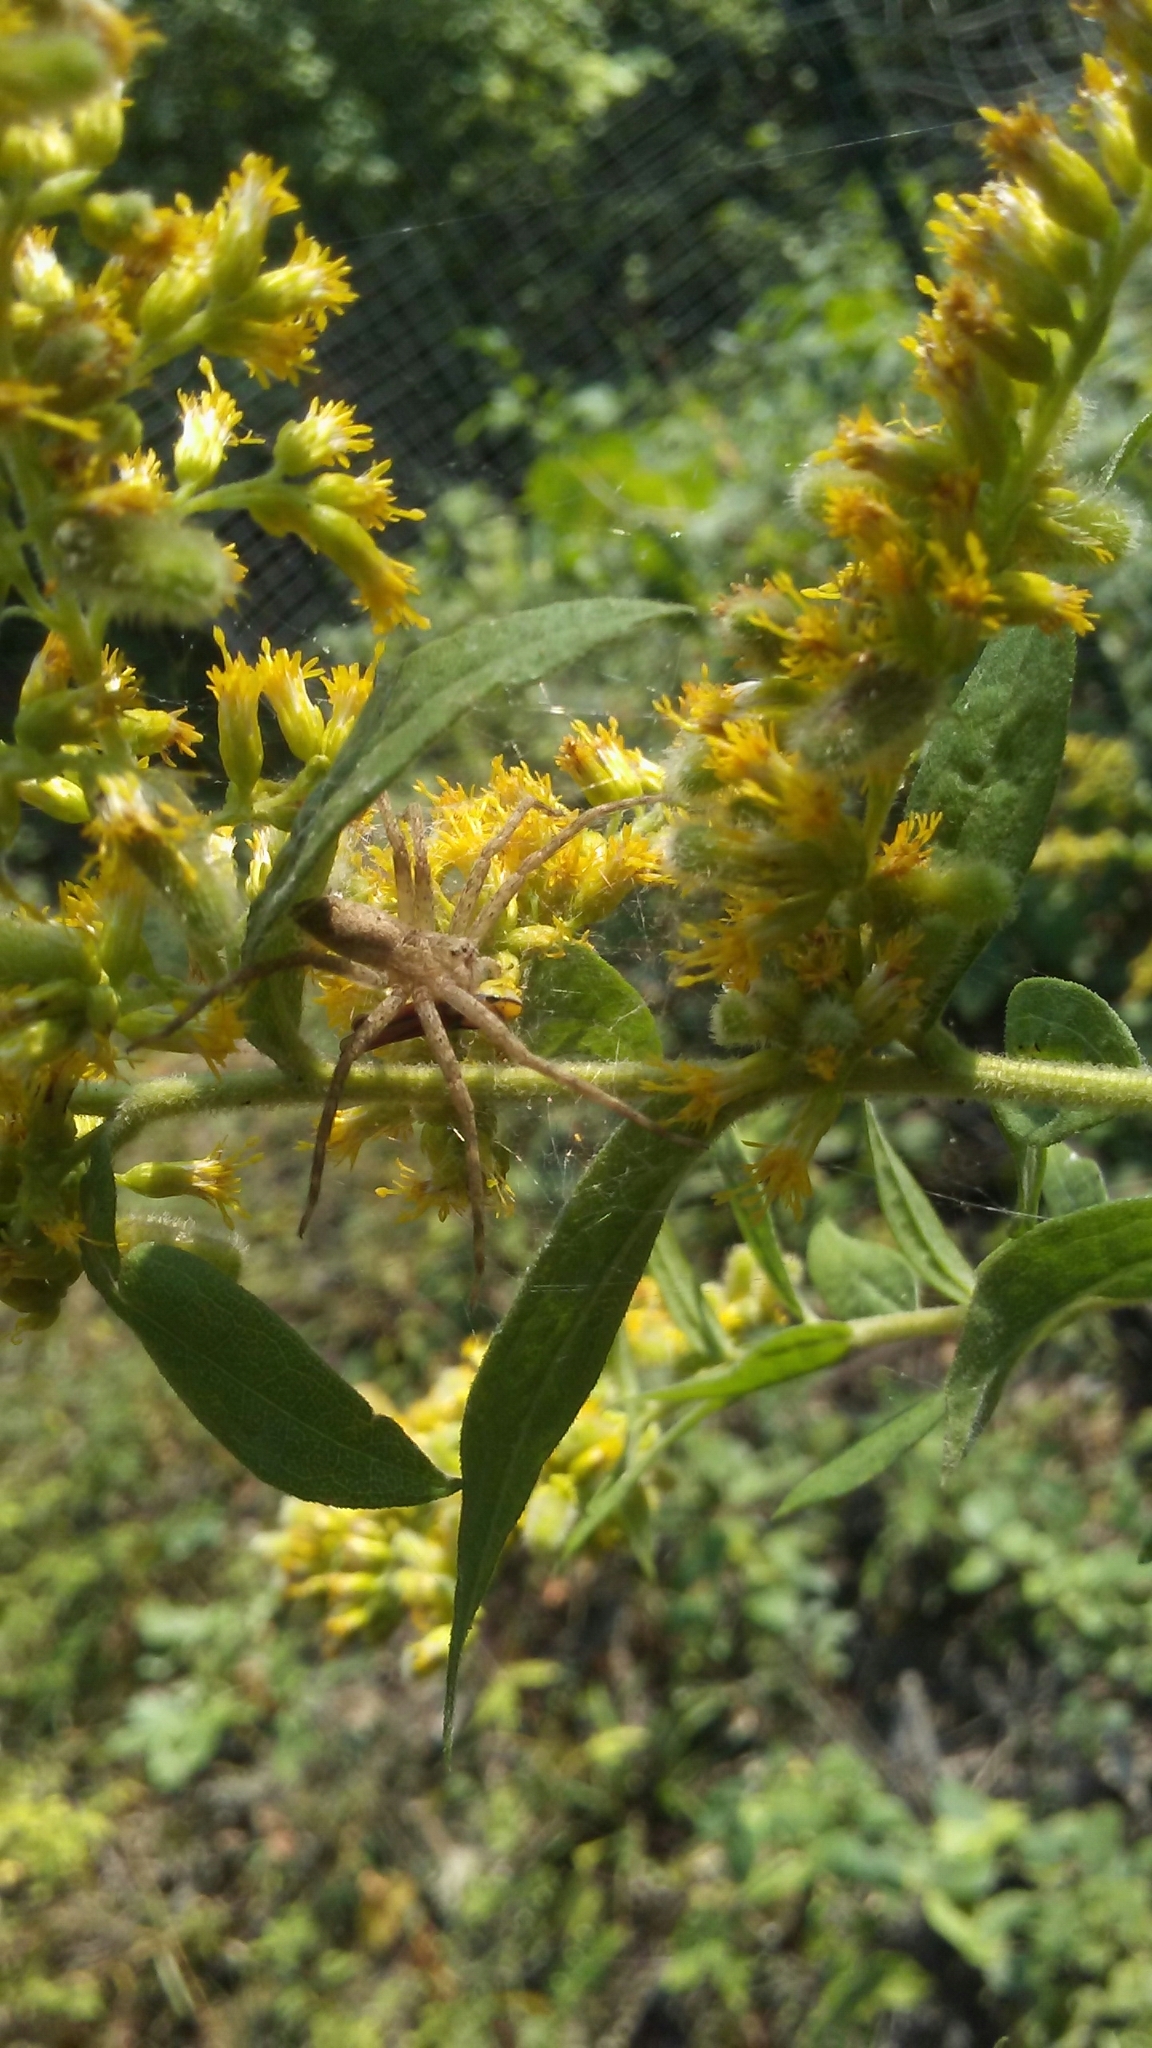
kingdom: Animalia
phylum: Arthropoda
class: Arachnida
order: Araneae
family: Pisauridae
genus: Pisaurina
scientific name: Pisaurina mira
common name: American nursery web spider
